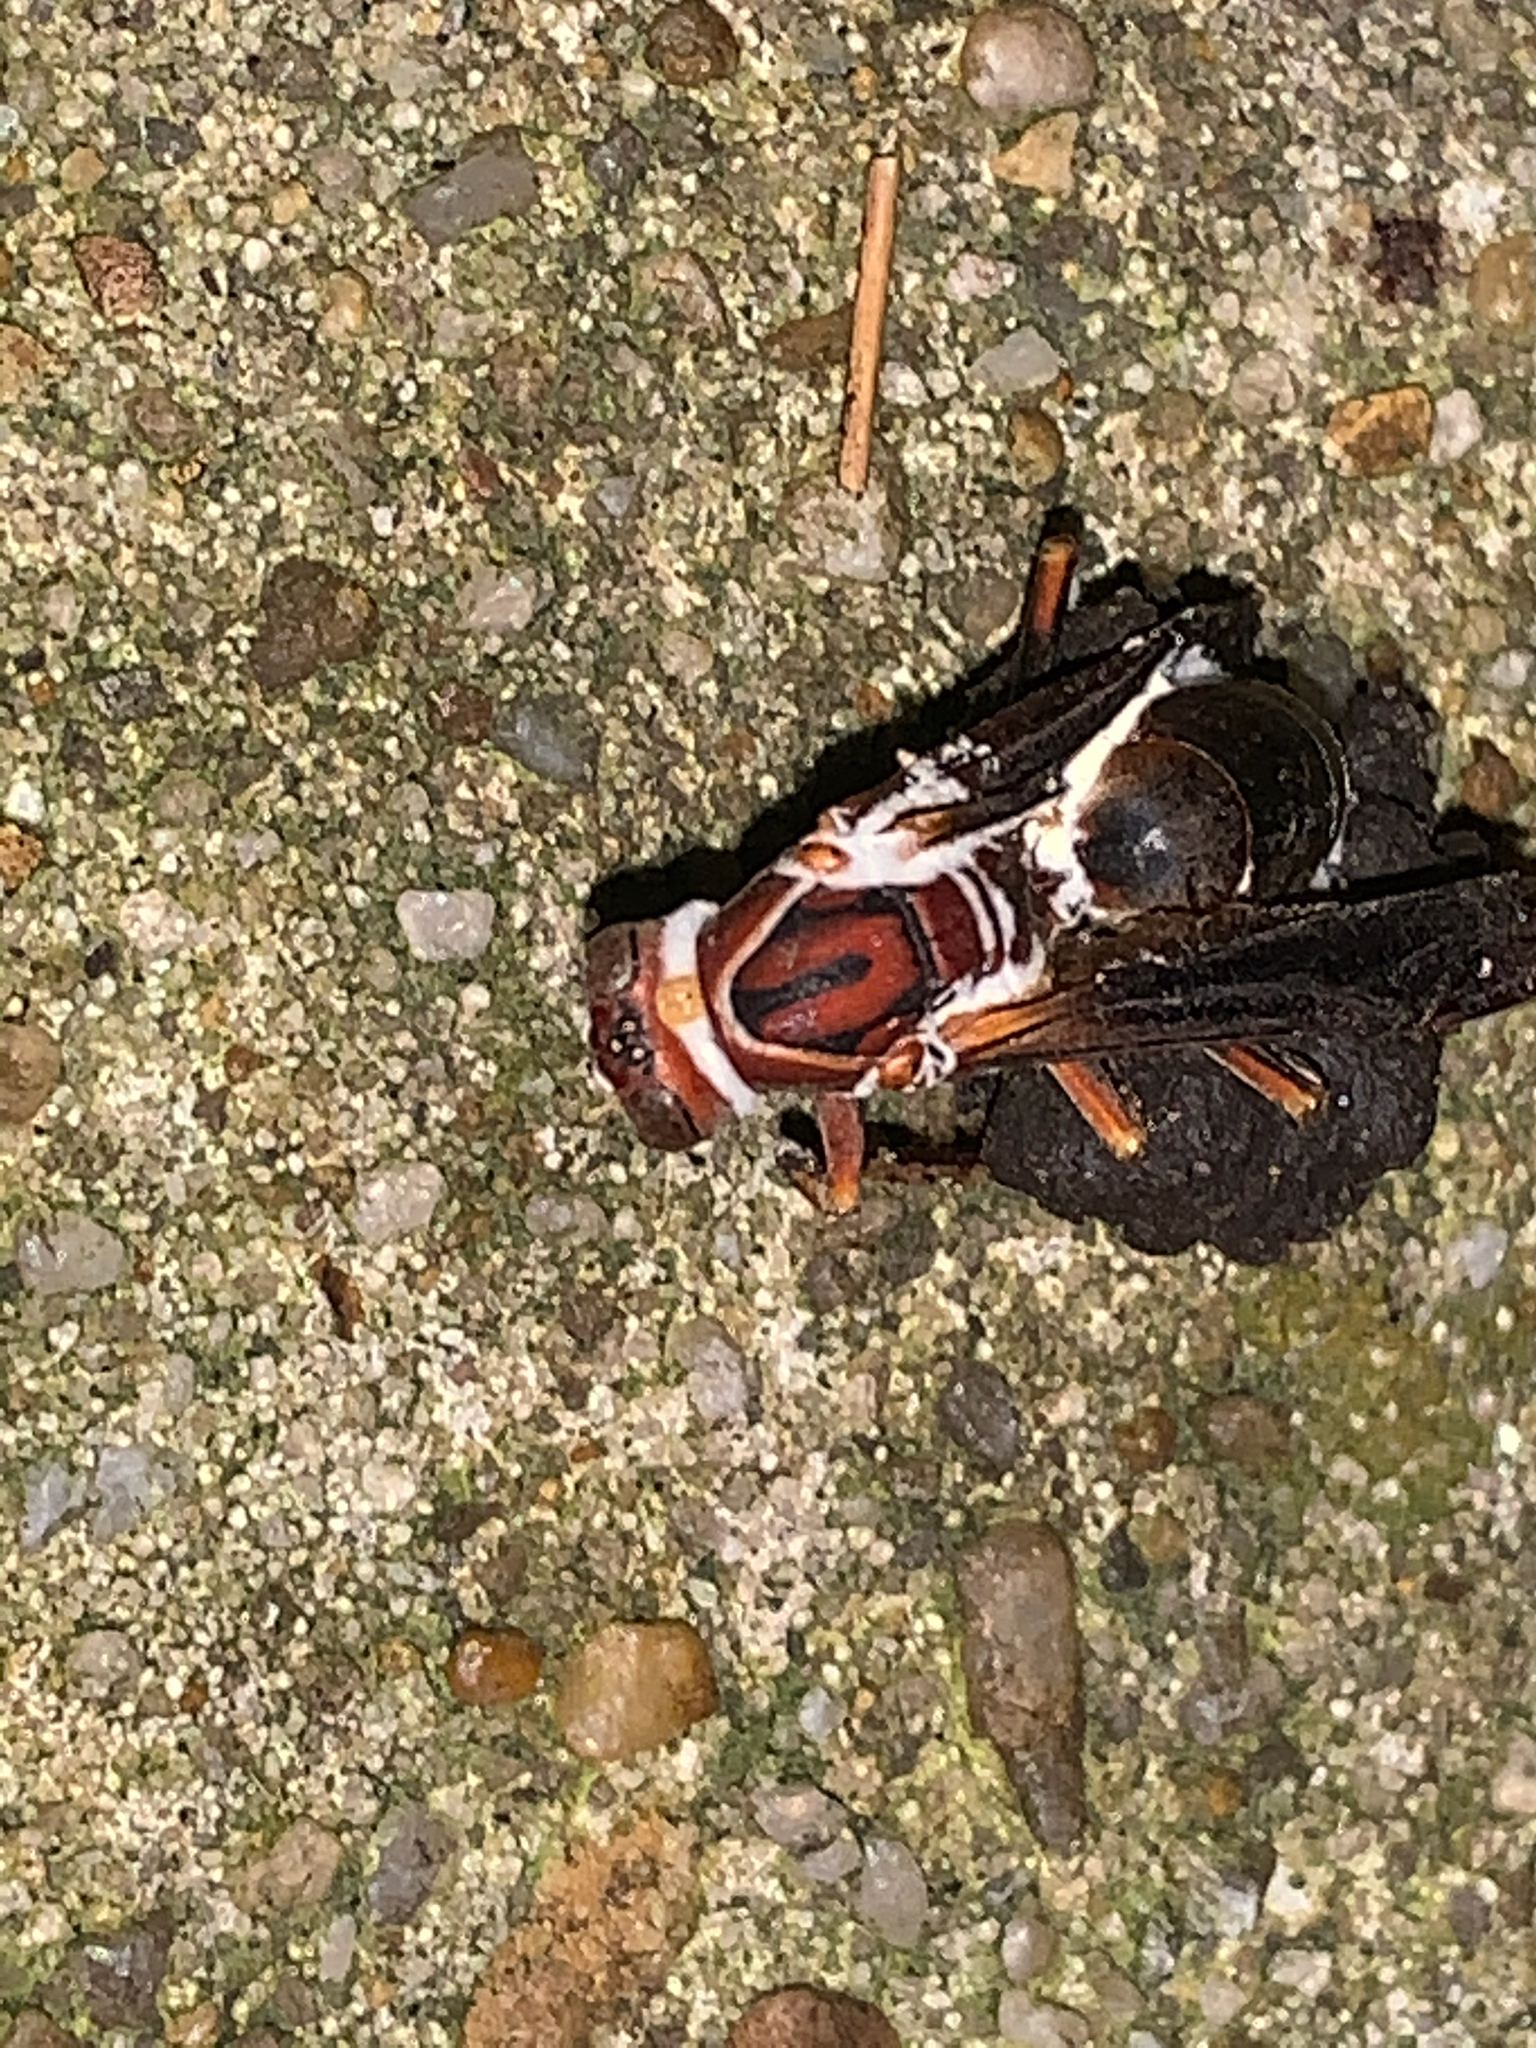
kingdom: Animalia
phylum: Arthropoda
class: Insecta
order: Hymenoptera
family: Eumenidae
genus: Polistes
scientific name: Polistes metricus
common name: Metric paper wasp
